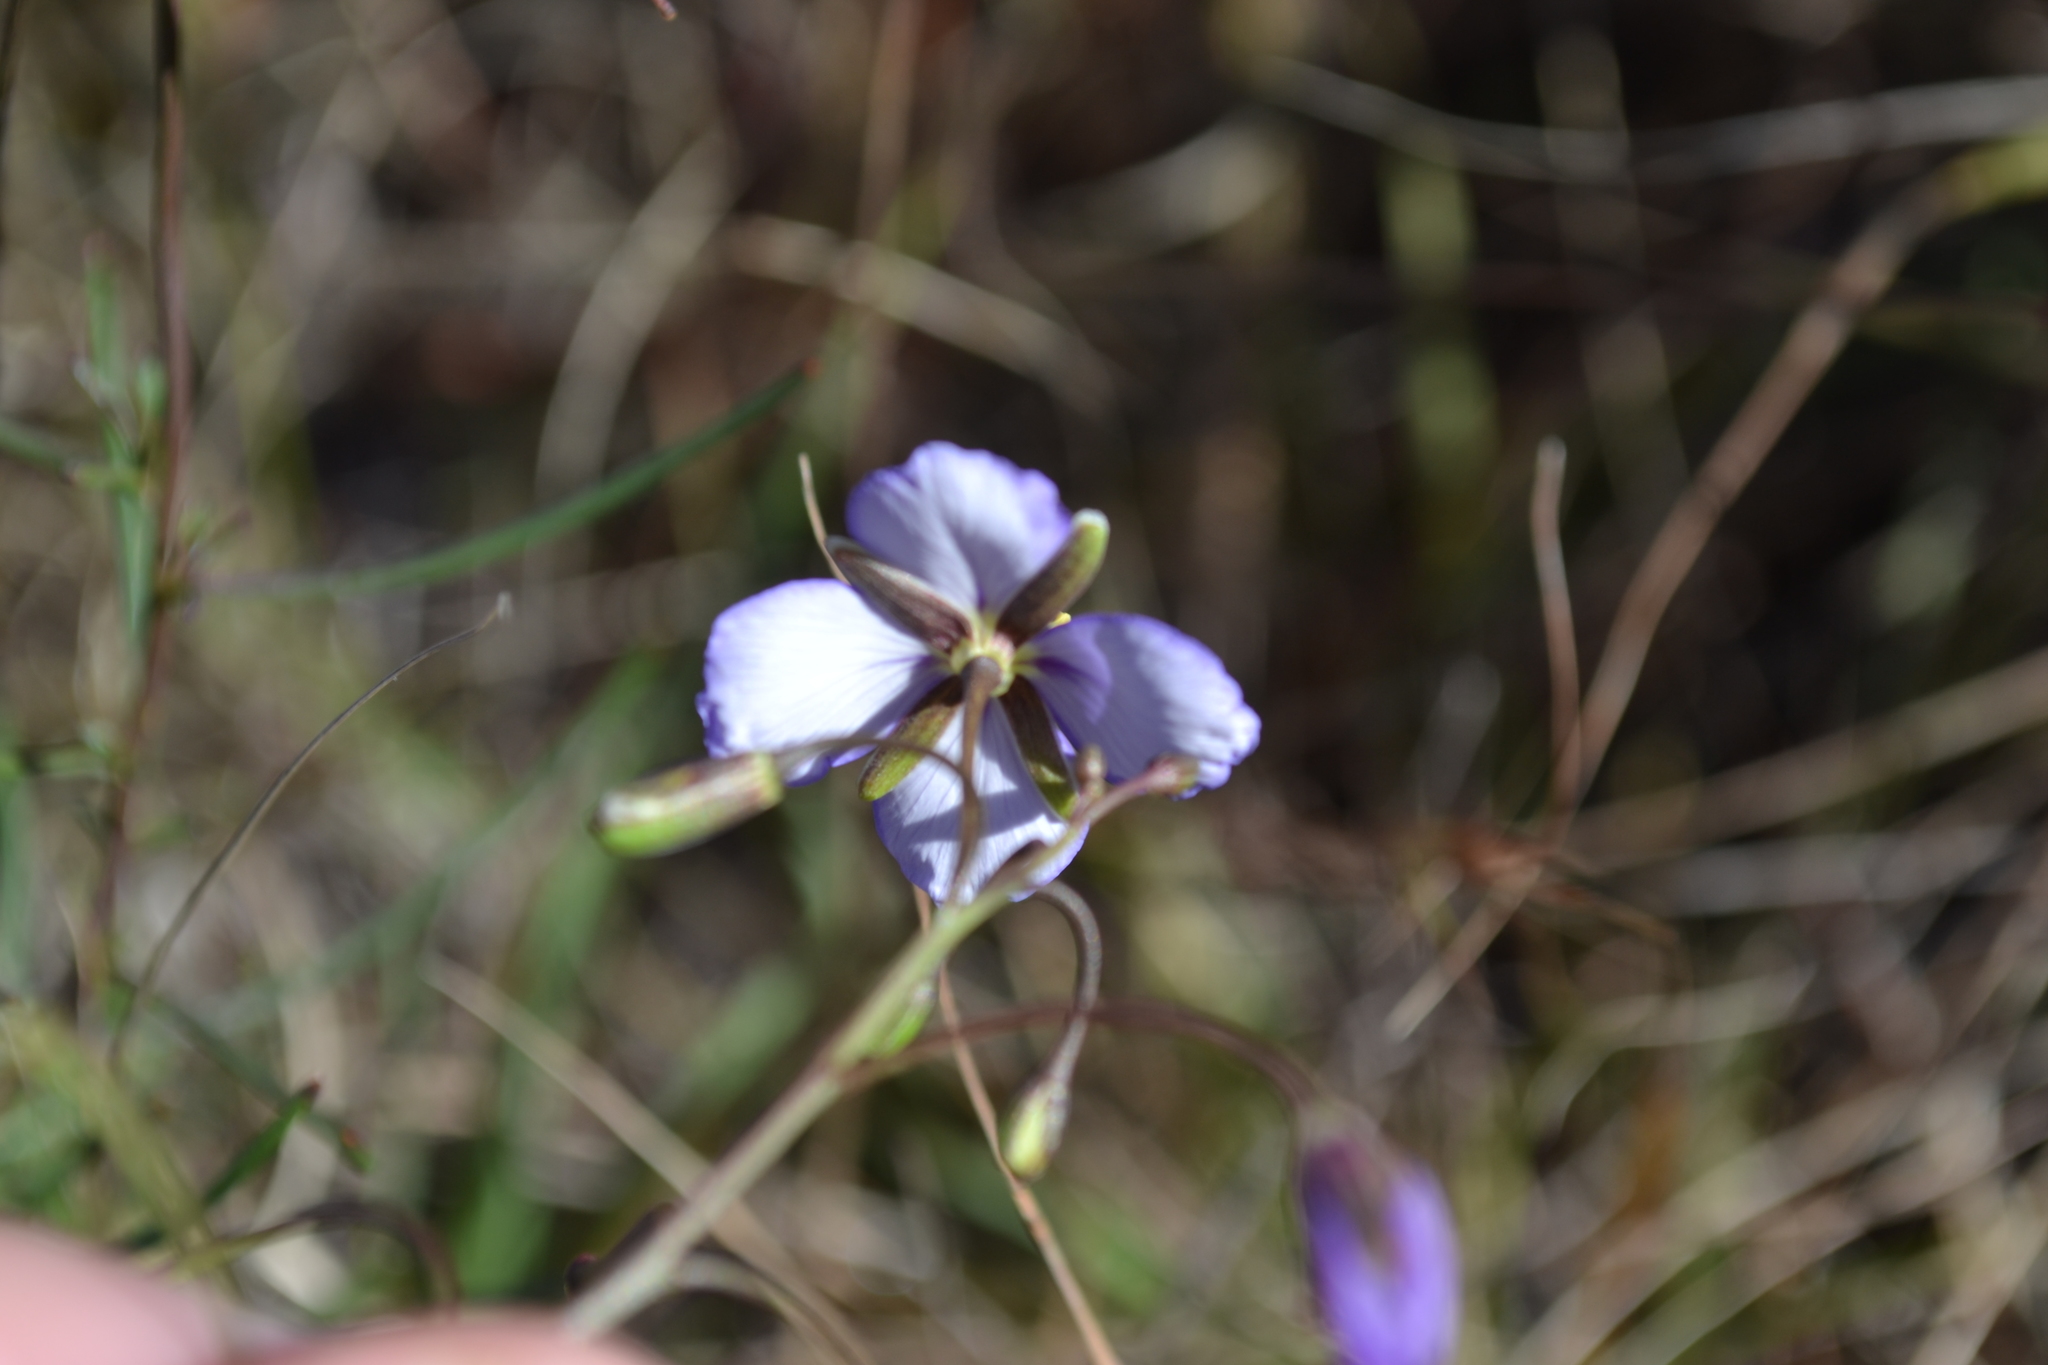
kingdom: Plantae
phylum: Tracheophyta
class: Magnoliopsida
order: Brassicales
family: Brassicaceae
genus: Heliophila
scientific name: Heliophila suavissima
